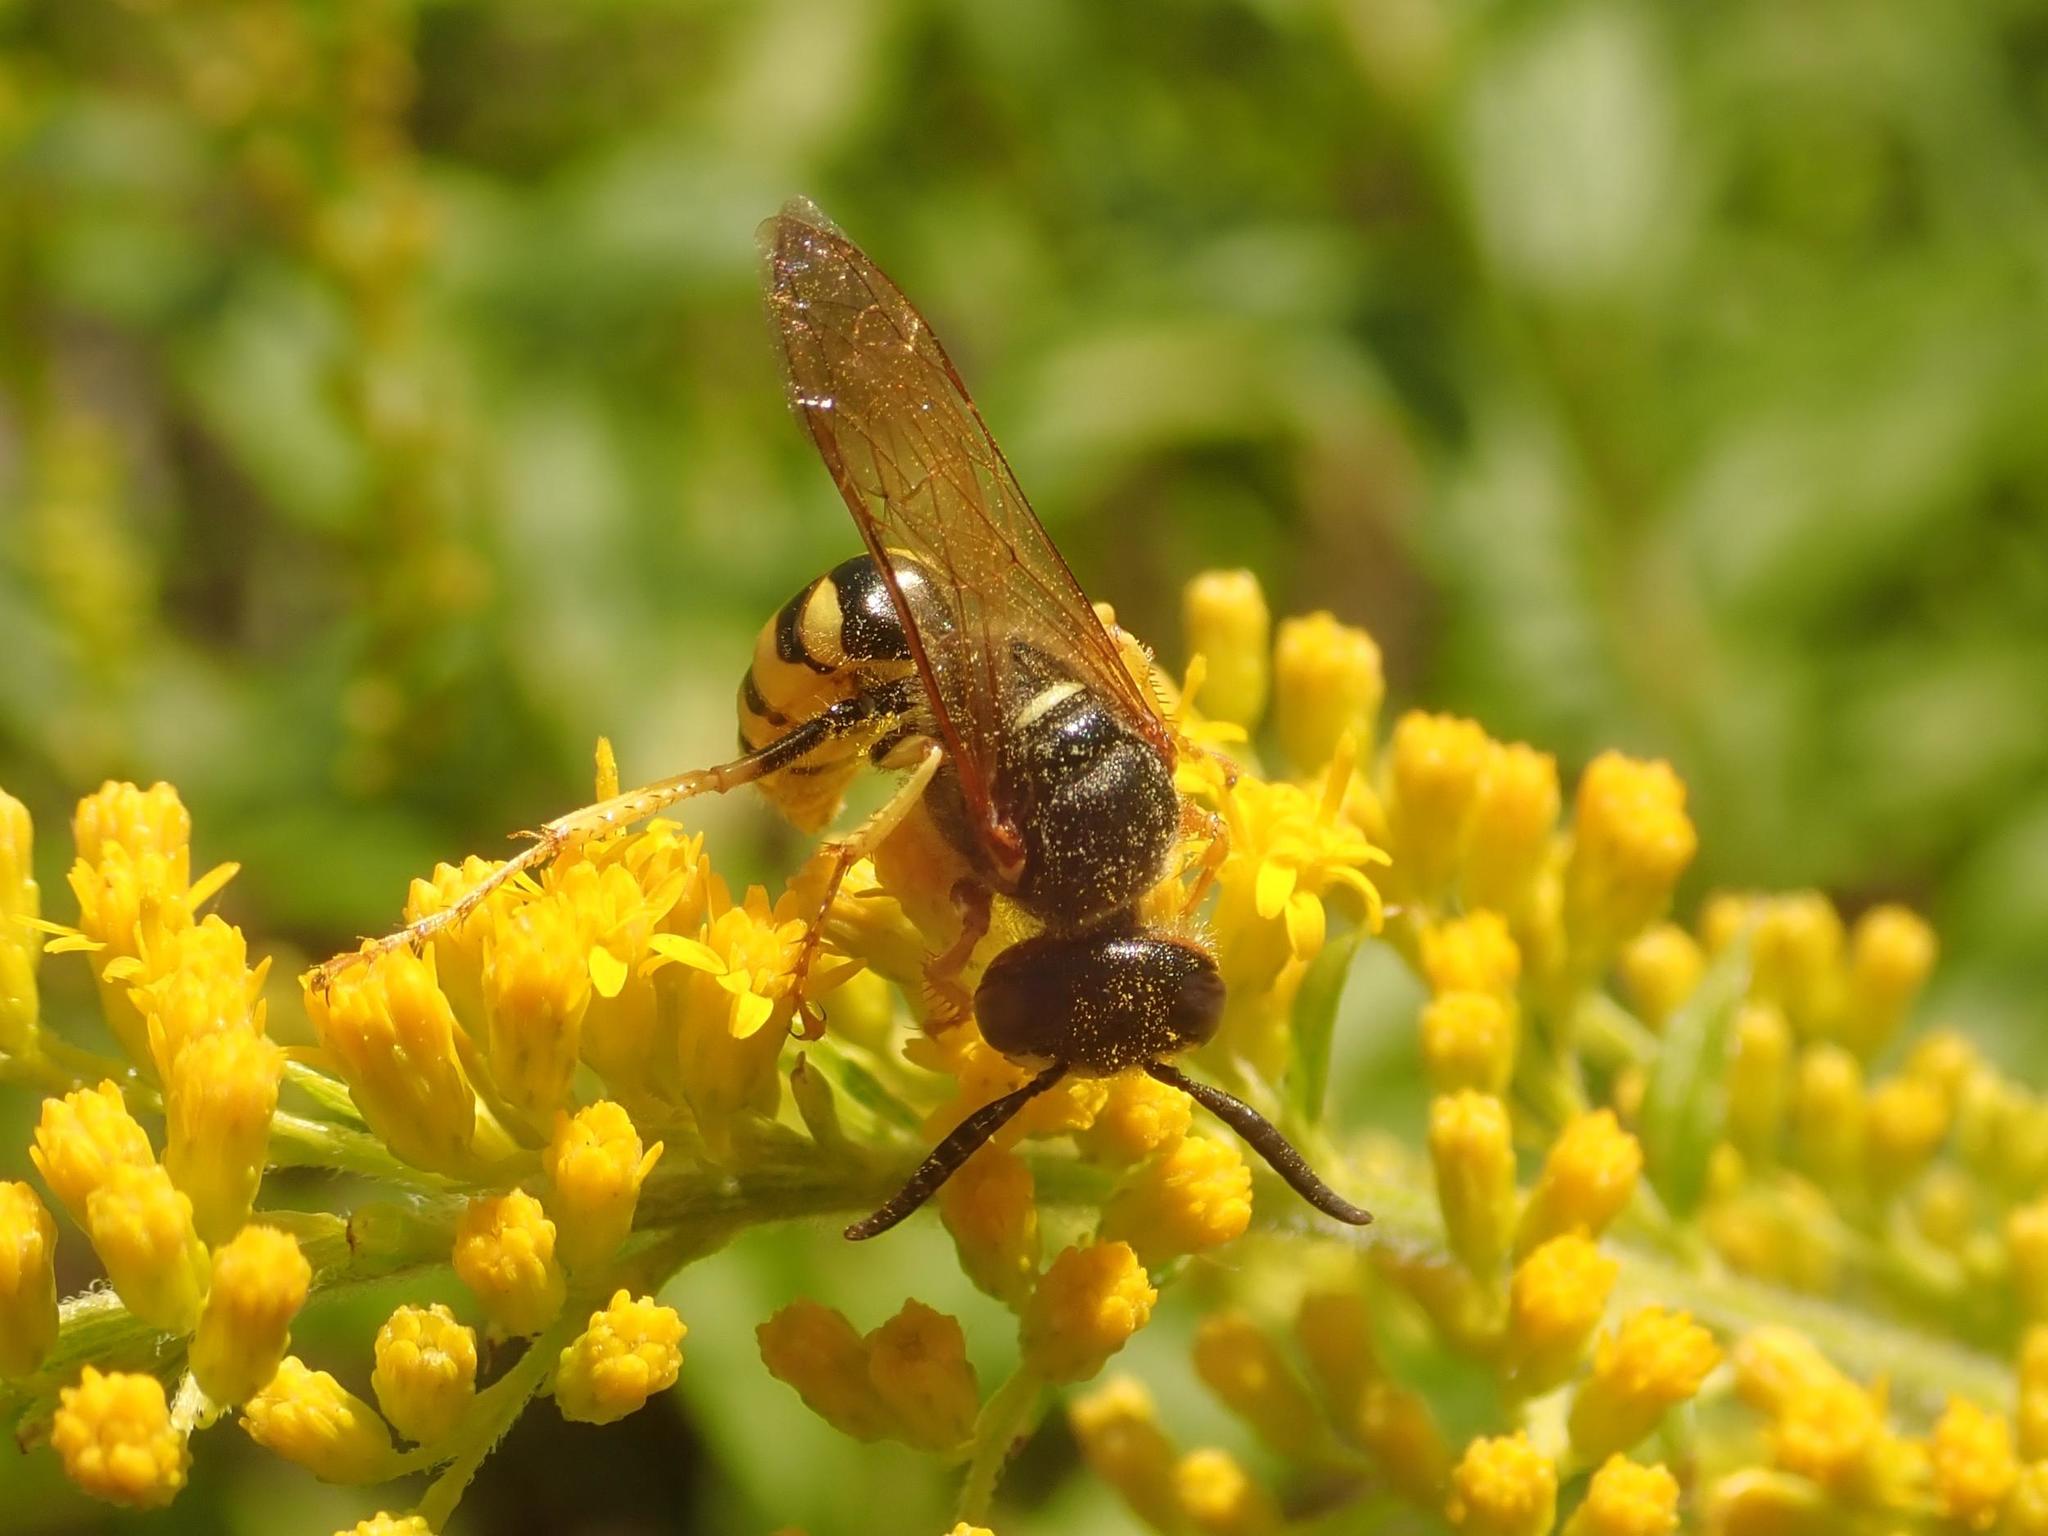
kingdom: Animalia
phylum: Arthropoda
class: Insecta
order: Hymenoptera
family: Crabronidae
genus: Philanthus
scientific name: Philanthus triangulum
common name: Bee wolf
